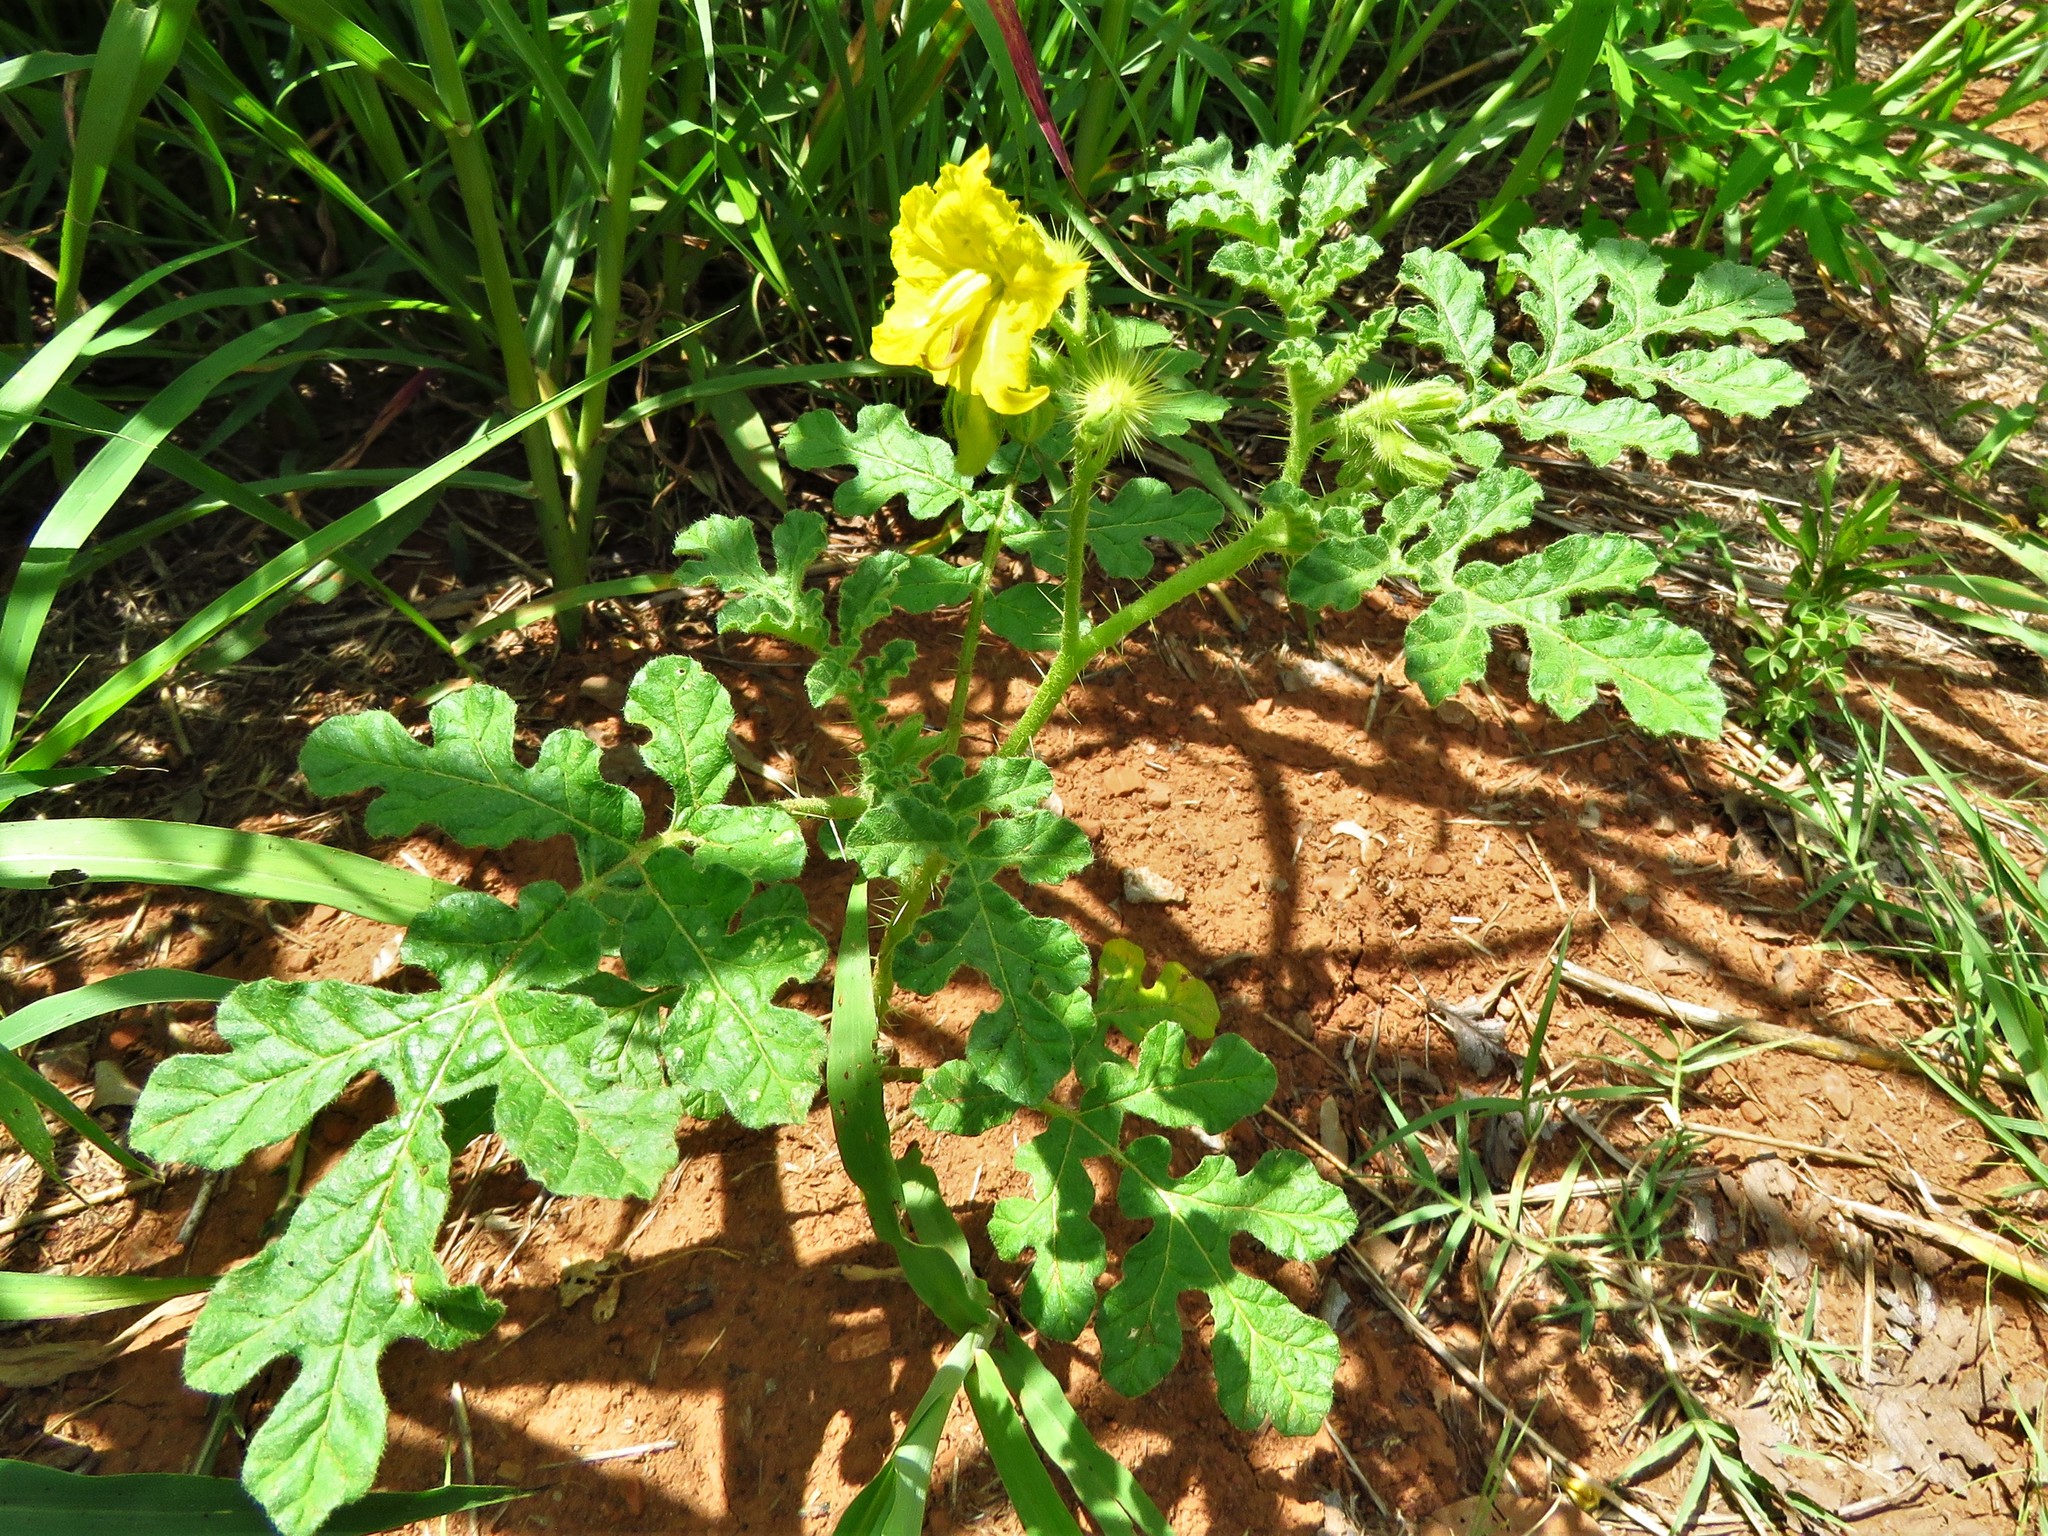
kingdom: Plantae
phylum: Tracheophyta
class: Magnoliopsida
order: Solanales
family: Solanaceae
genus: Solanum
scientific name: Solanum angustifolium
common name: Buffalobur nightshade
